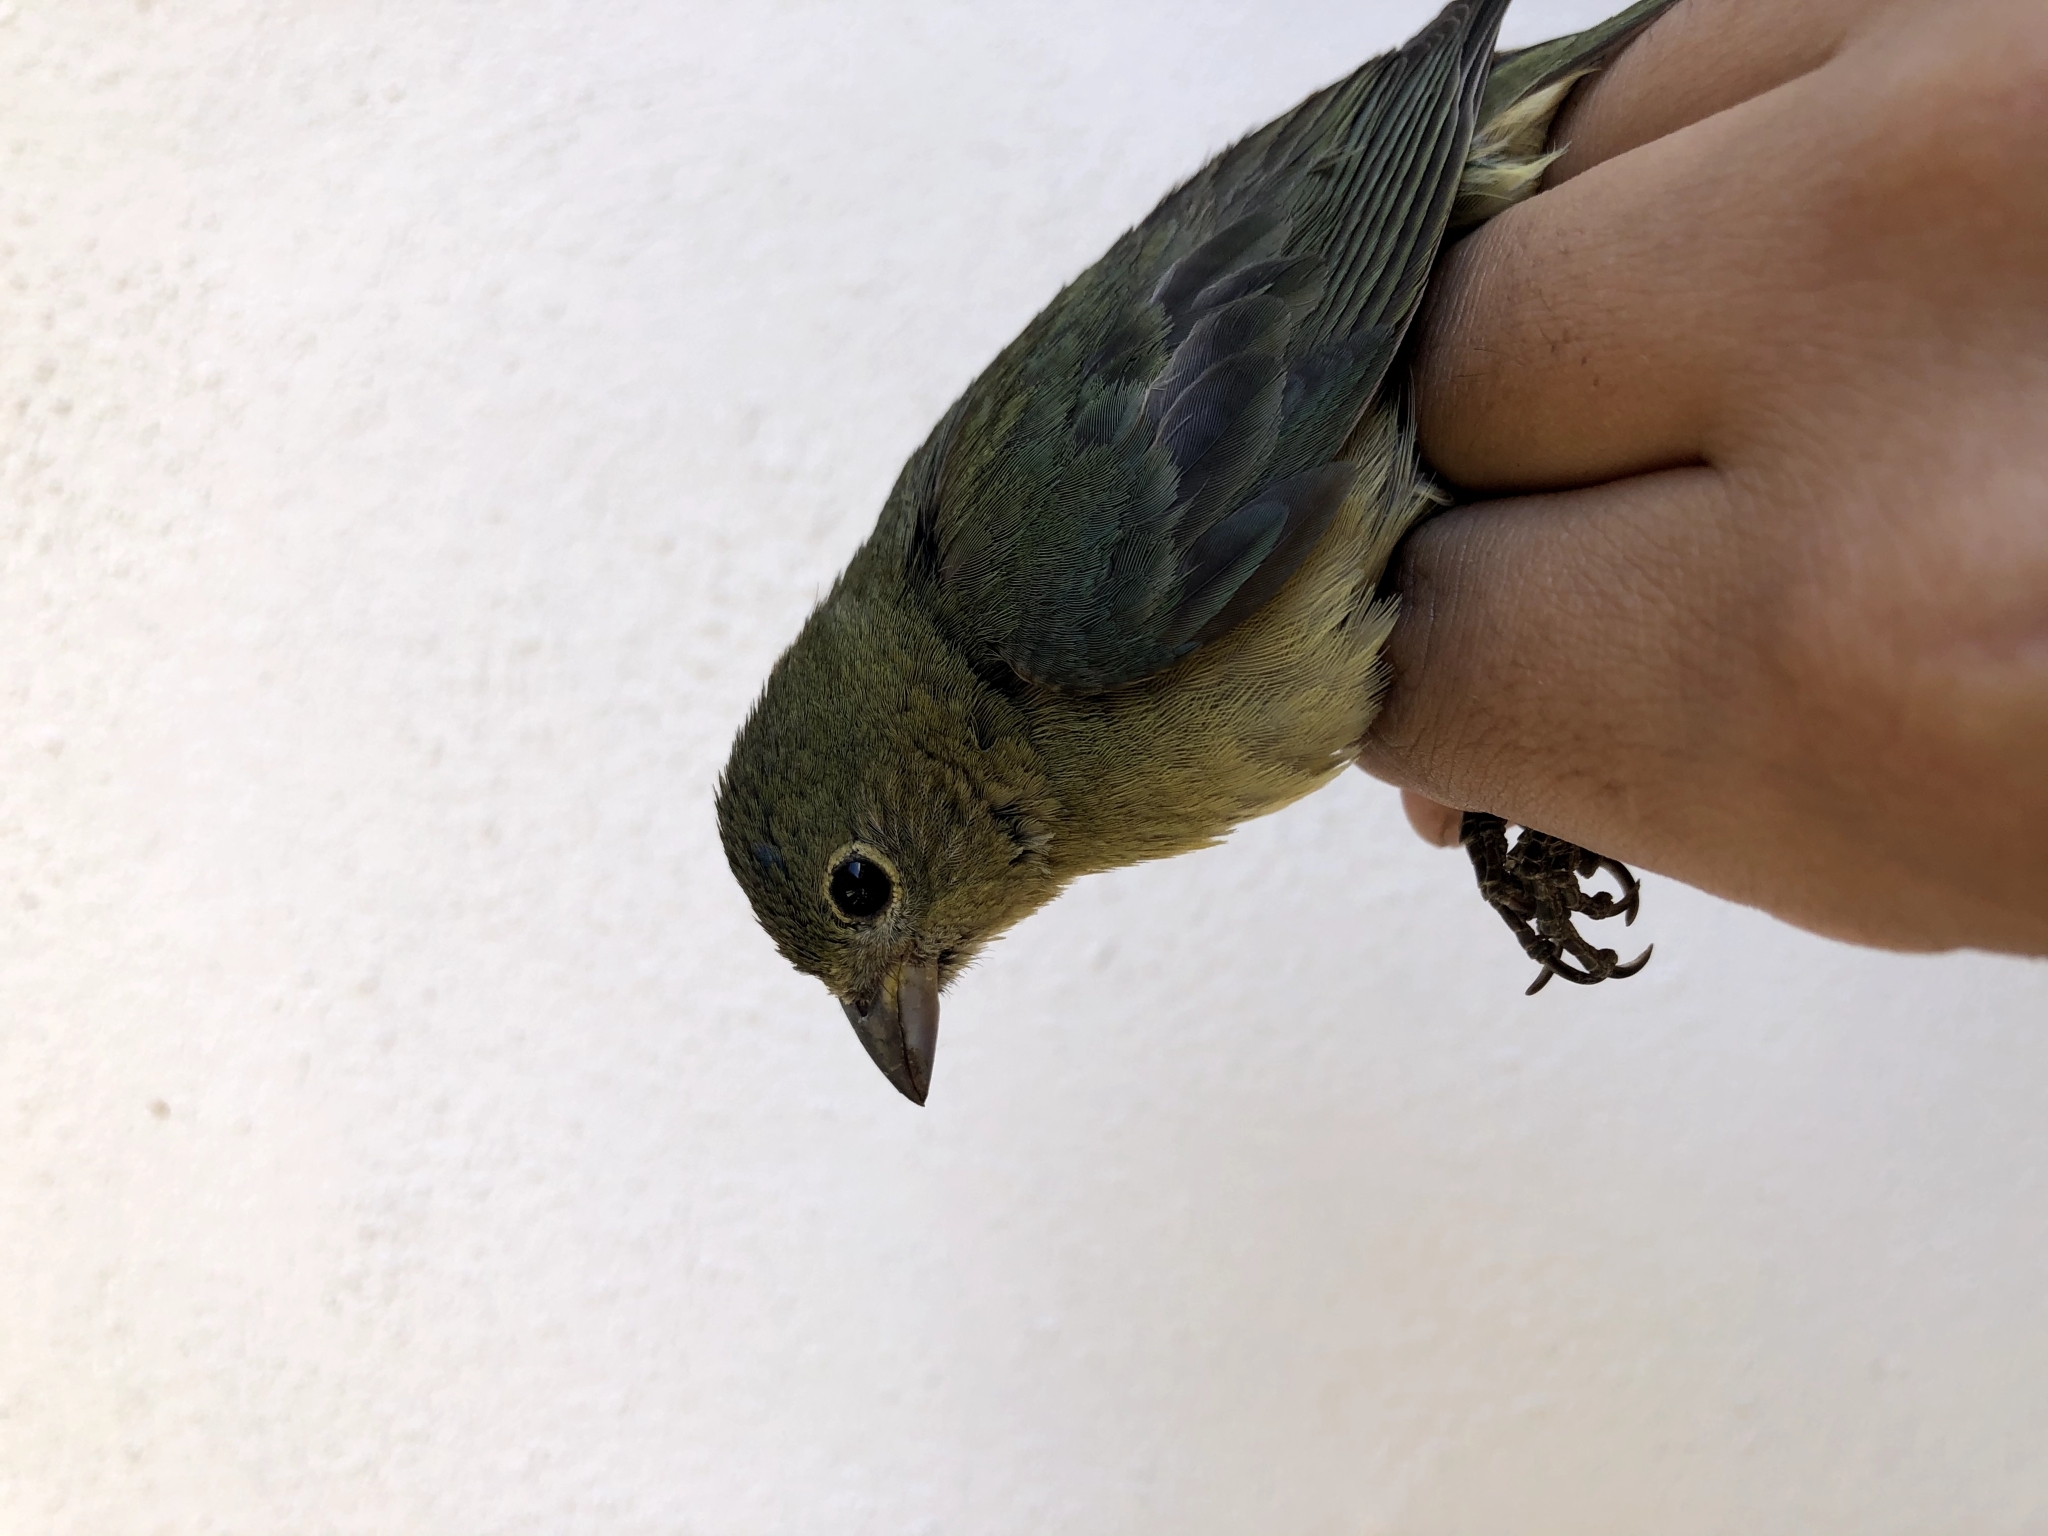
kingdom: Animalia
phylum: Chordata
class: Aves
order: Passeriformes
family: Cardinalidae
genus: Passerina
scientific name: Passerina ciris
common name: Painted bunting
